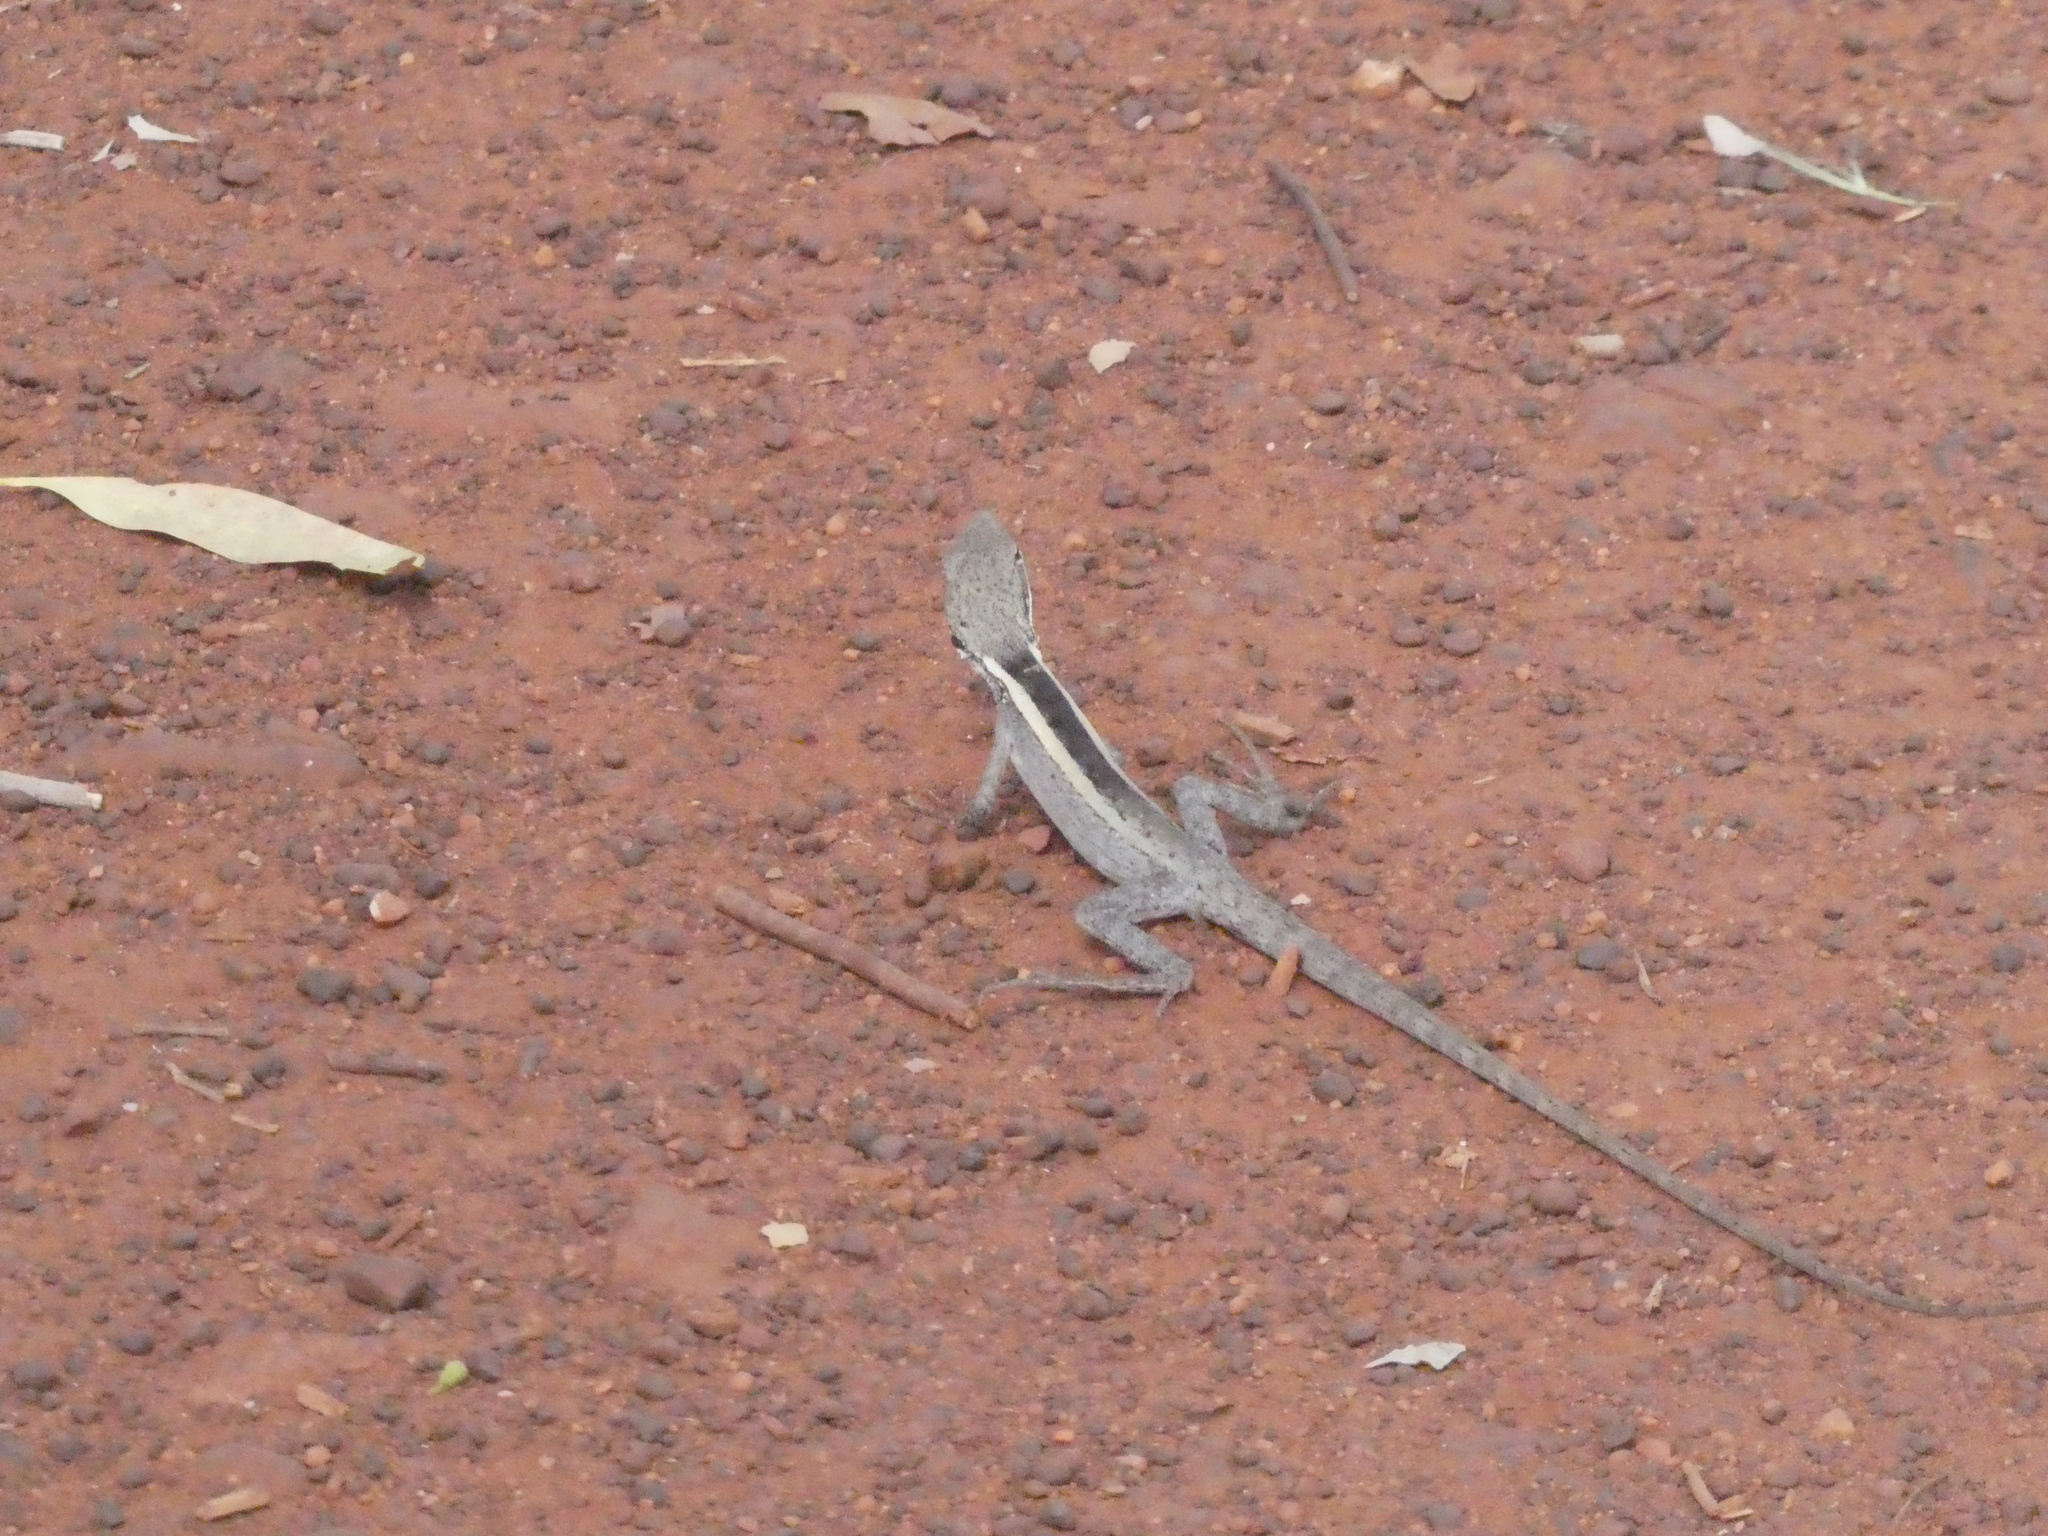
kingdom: Animalia
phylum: Chordata
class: Squamata
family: Agamidae
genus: Gowidon
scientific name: Gowidon longirostris
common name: Long-nosed water dragon
